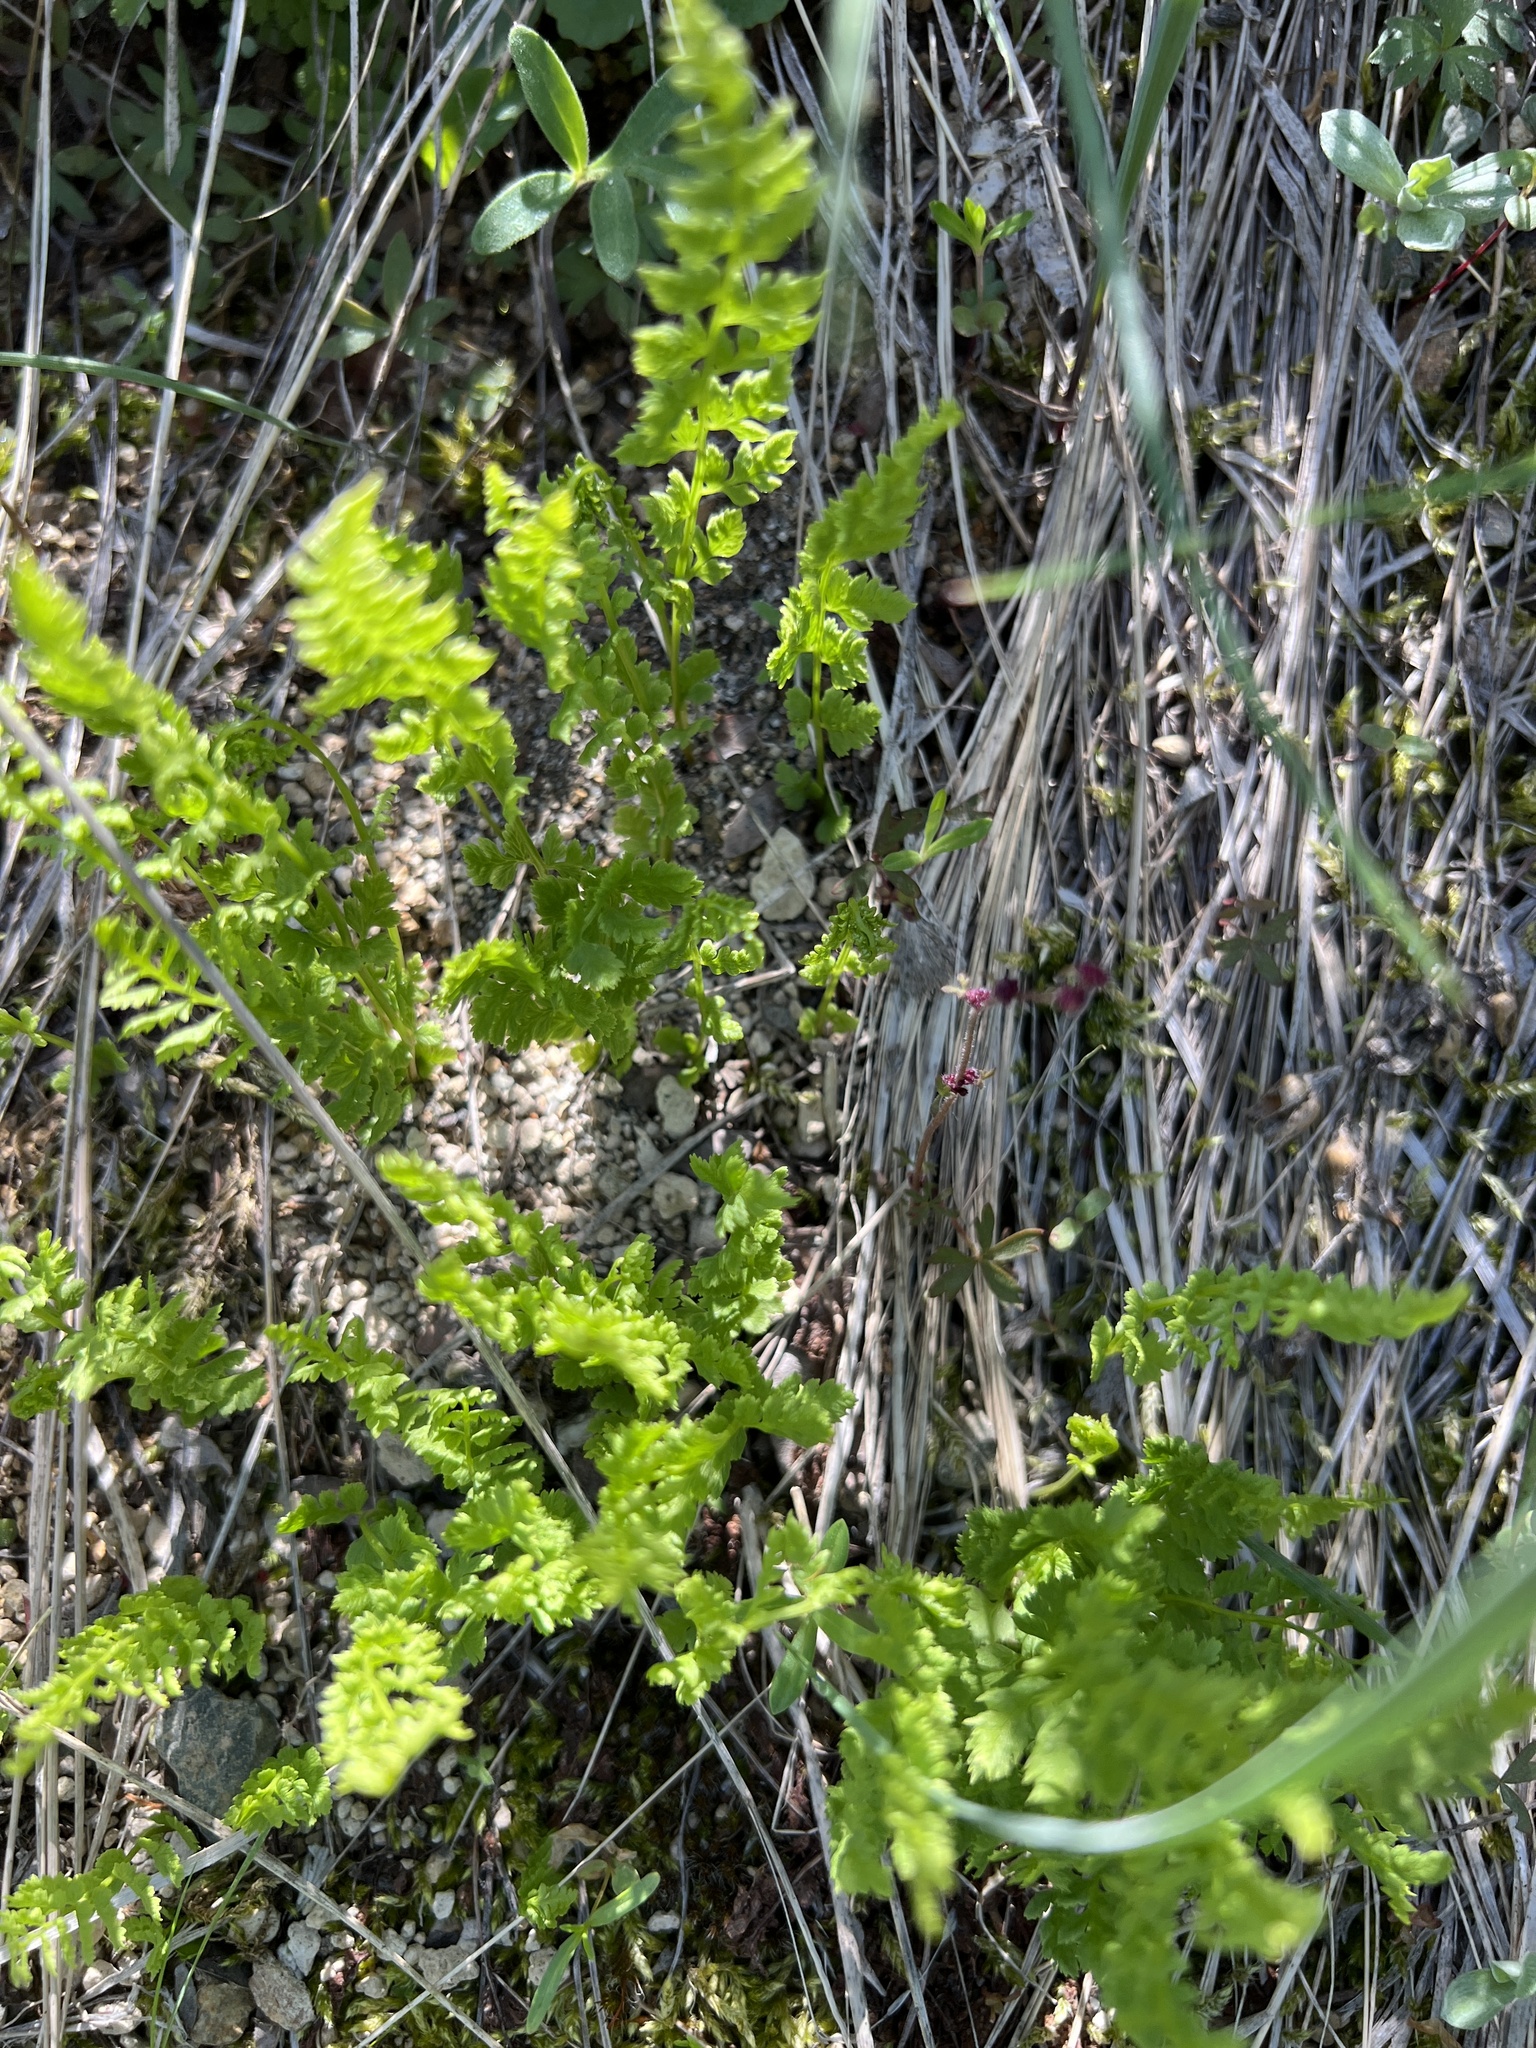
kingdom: Plantae
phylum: Tracheophyta
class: Polypodiopsida
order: Polypodiales
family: Cystopteridaceae
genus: Cystopteris
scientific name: Cystopteris fragilis
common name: Brittle bladder fern
